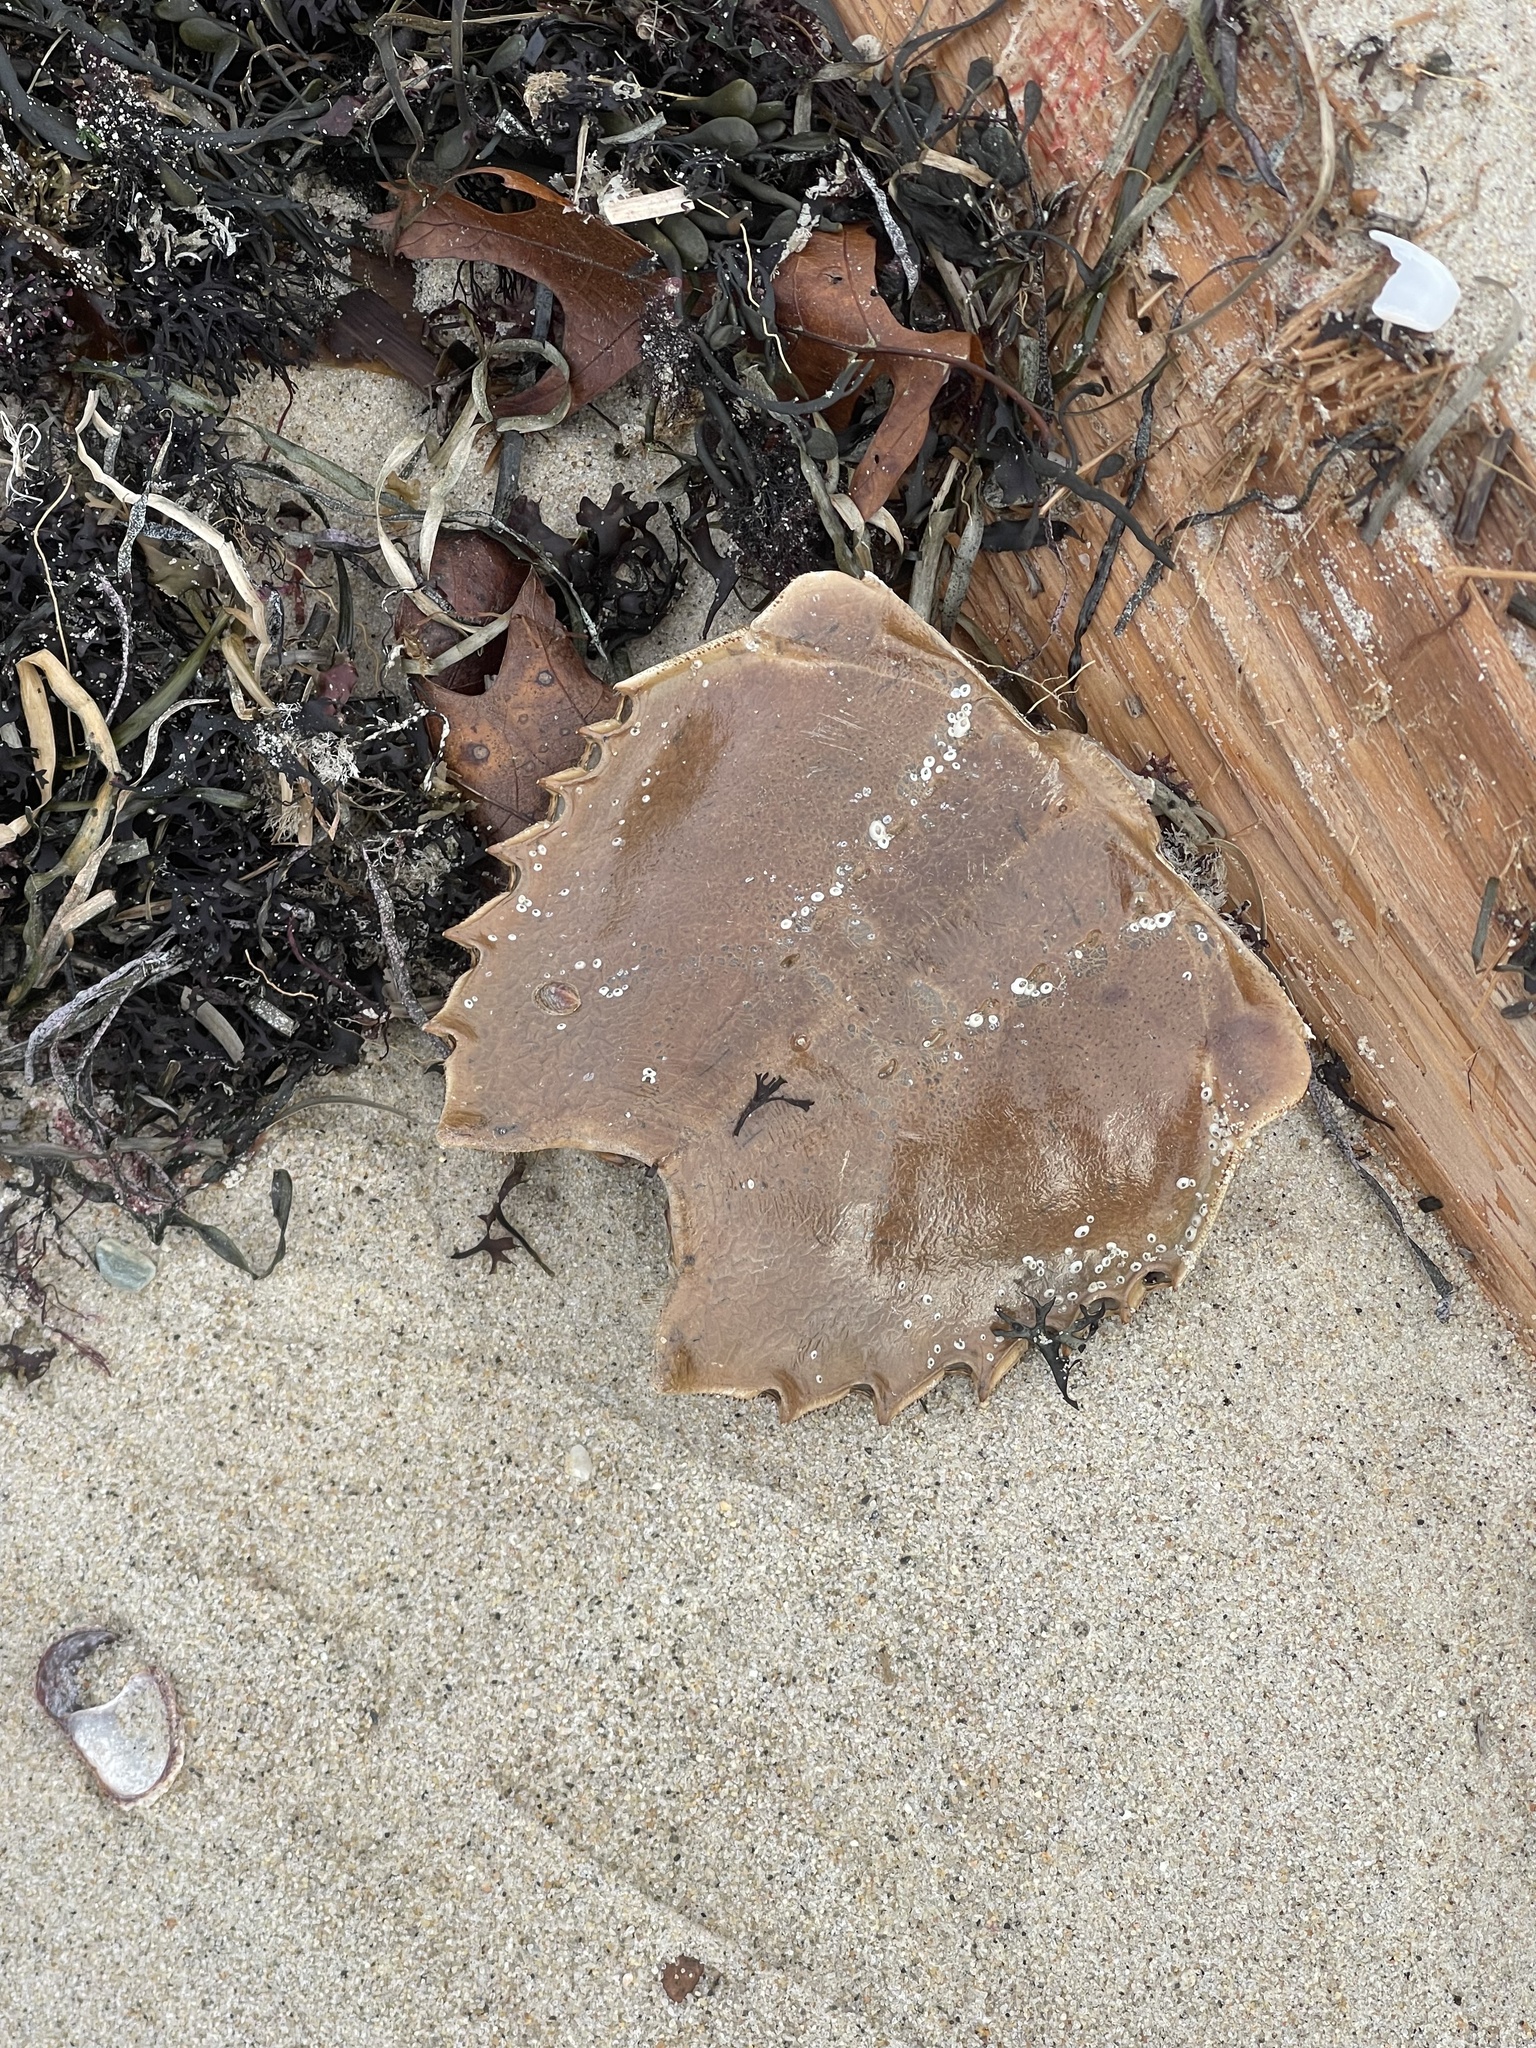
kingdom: Animalia
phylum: Arthropoda
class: Merostomata
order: Xiphosurida
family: Limulidae
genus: Limulus
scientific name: Limulus polyphemus
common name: Horseshoe crab
